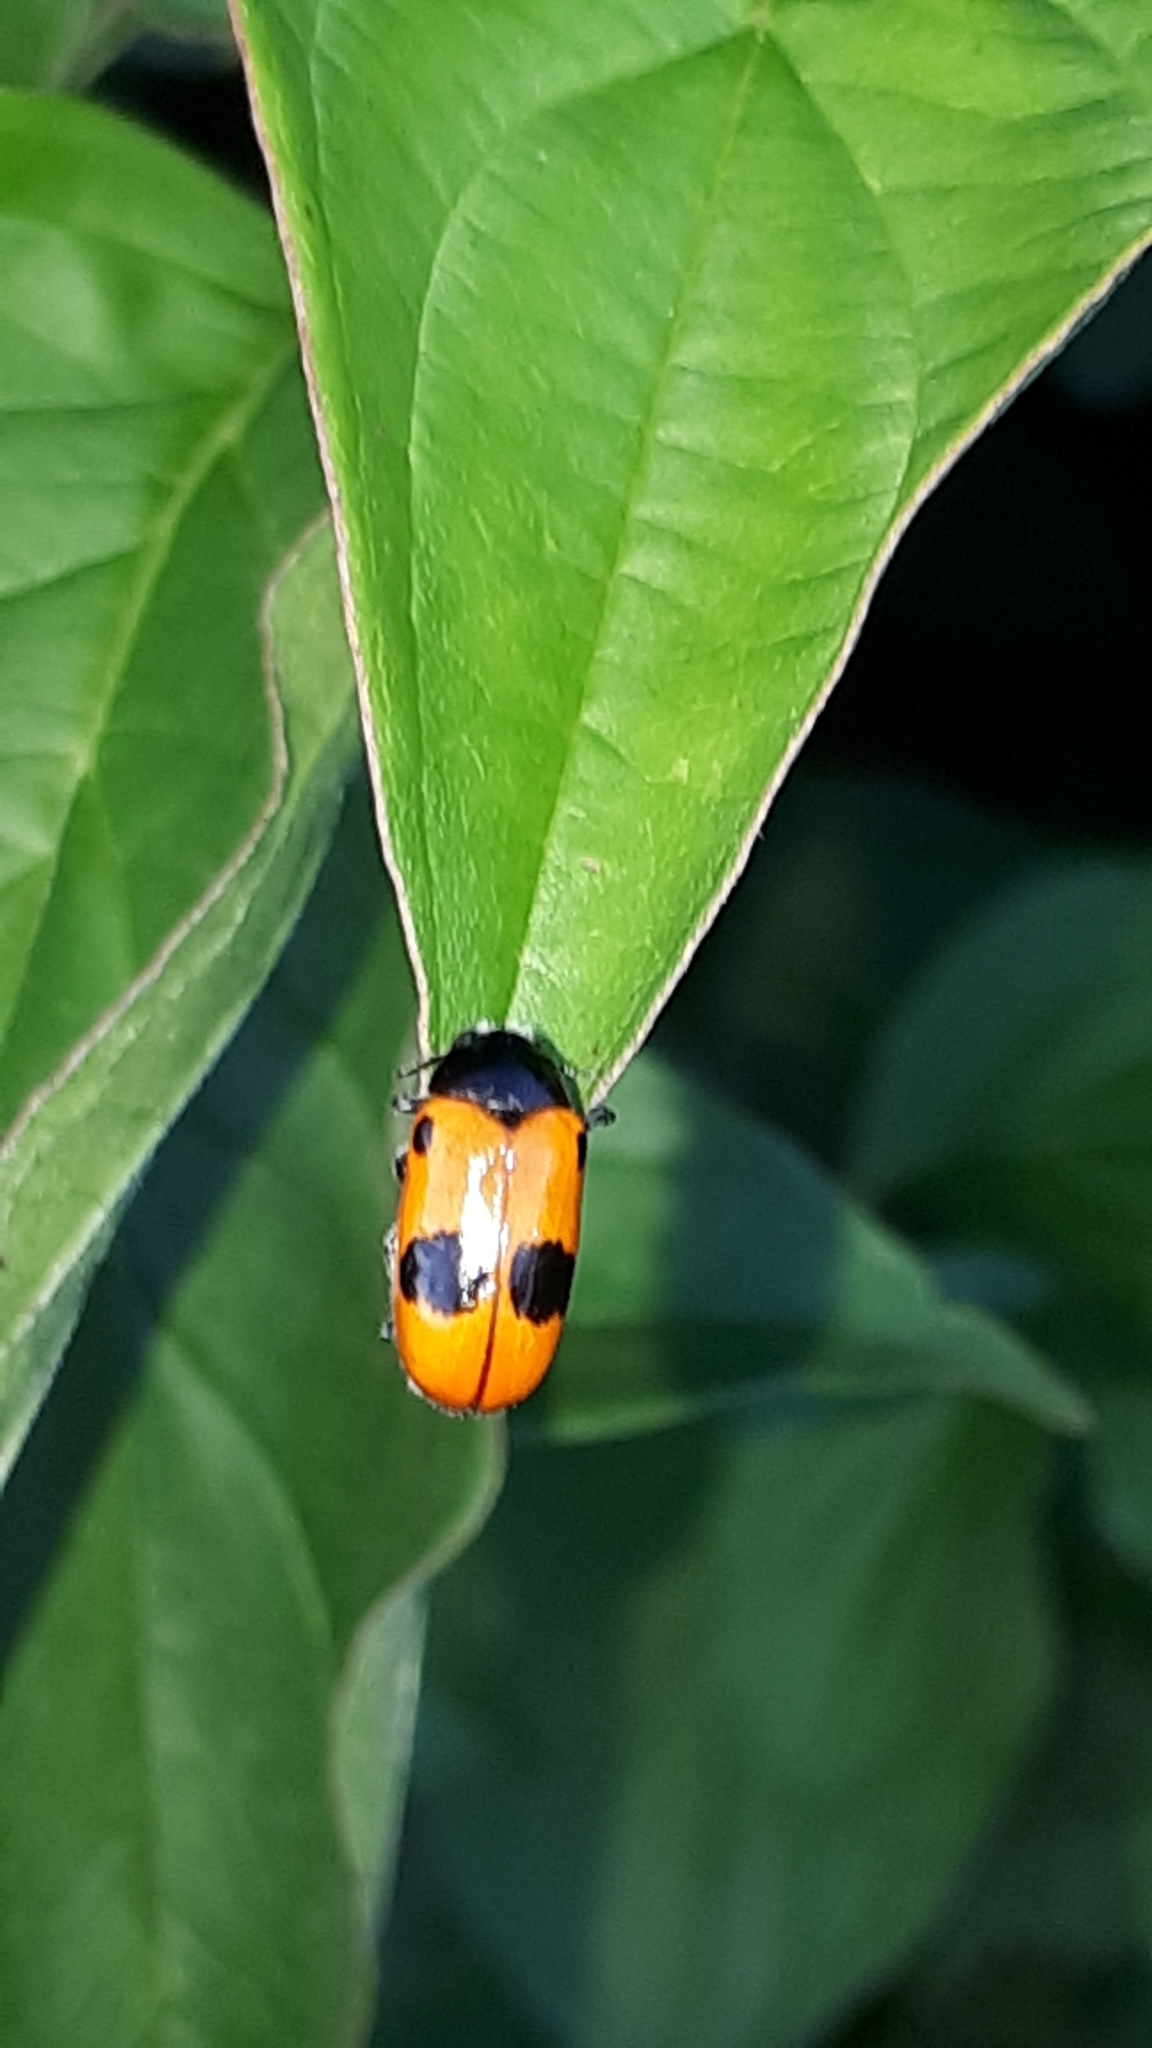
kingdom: Animalia
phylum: Arthropoda
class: Insecta
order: Coleoptera
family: Chrysomelidae
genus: Clytra
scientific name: Clytra laeviuscula
